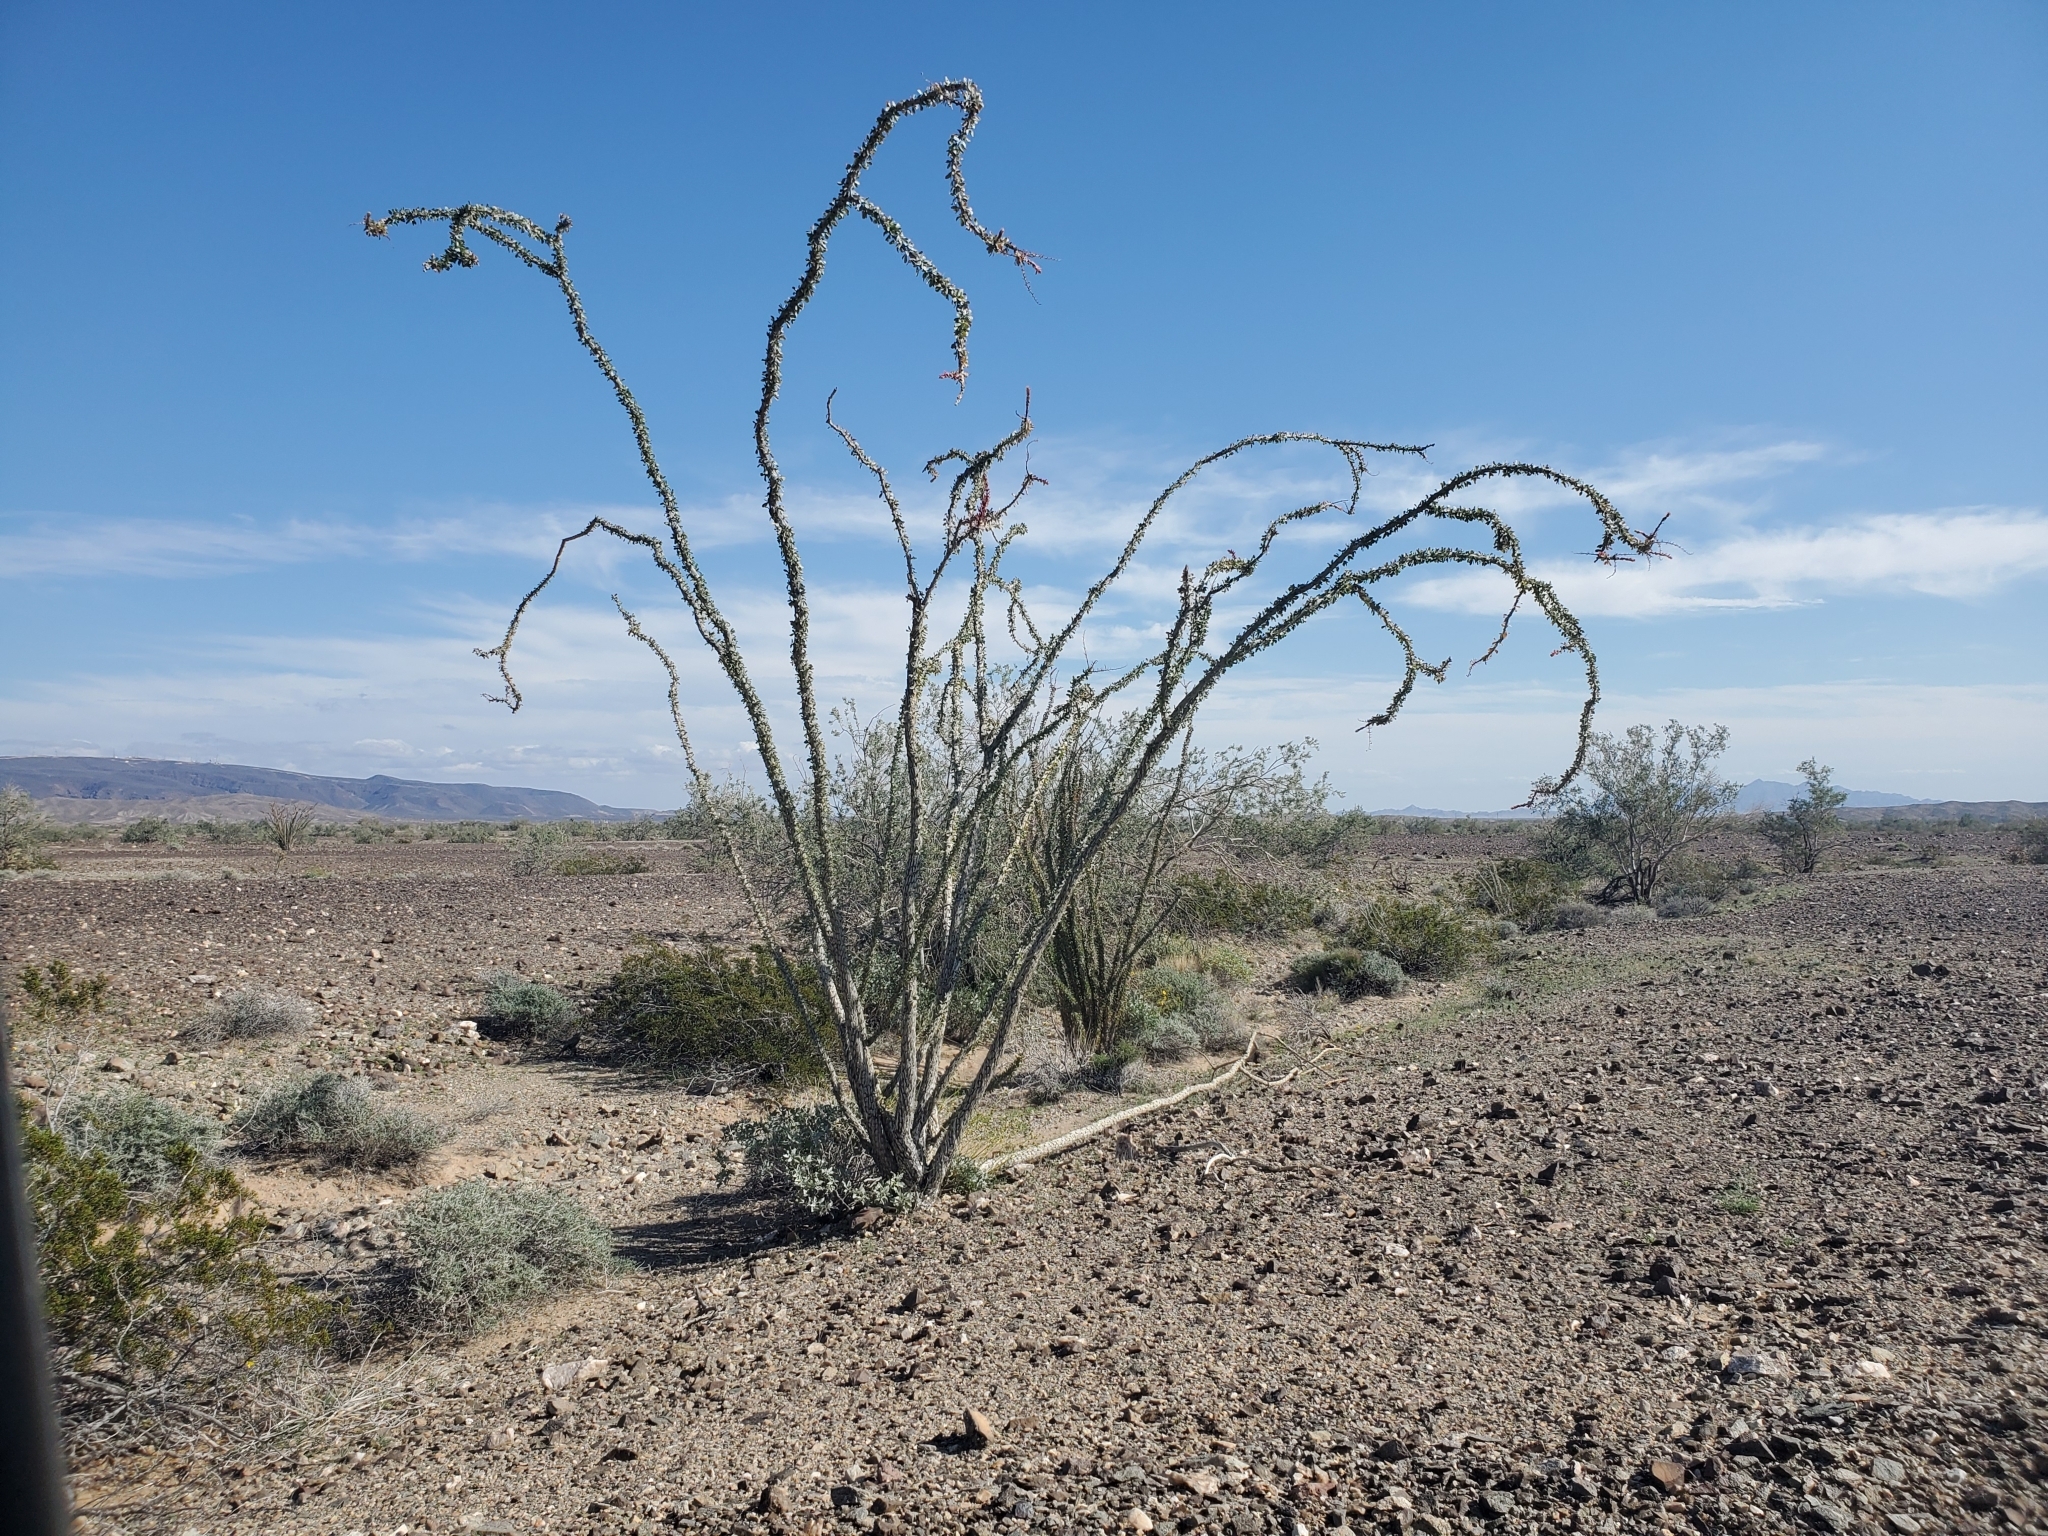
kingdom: Plantae
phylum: Tracheophyta
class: Magnoliopsida
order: Ericales
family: Fouquieriaceae
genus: Fouquieria
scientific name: Fouquieria splendens
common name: Vine-cactus
